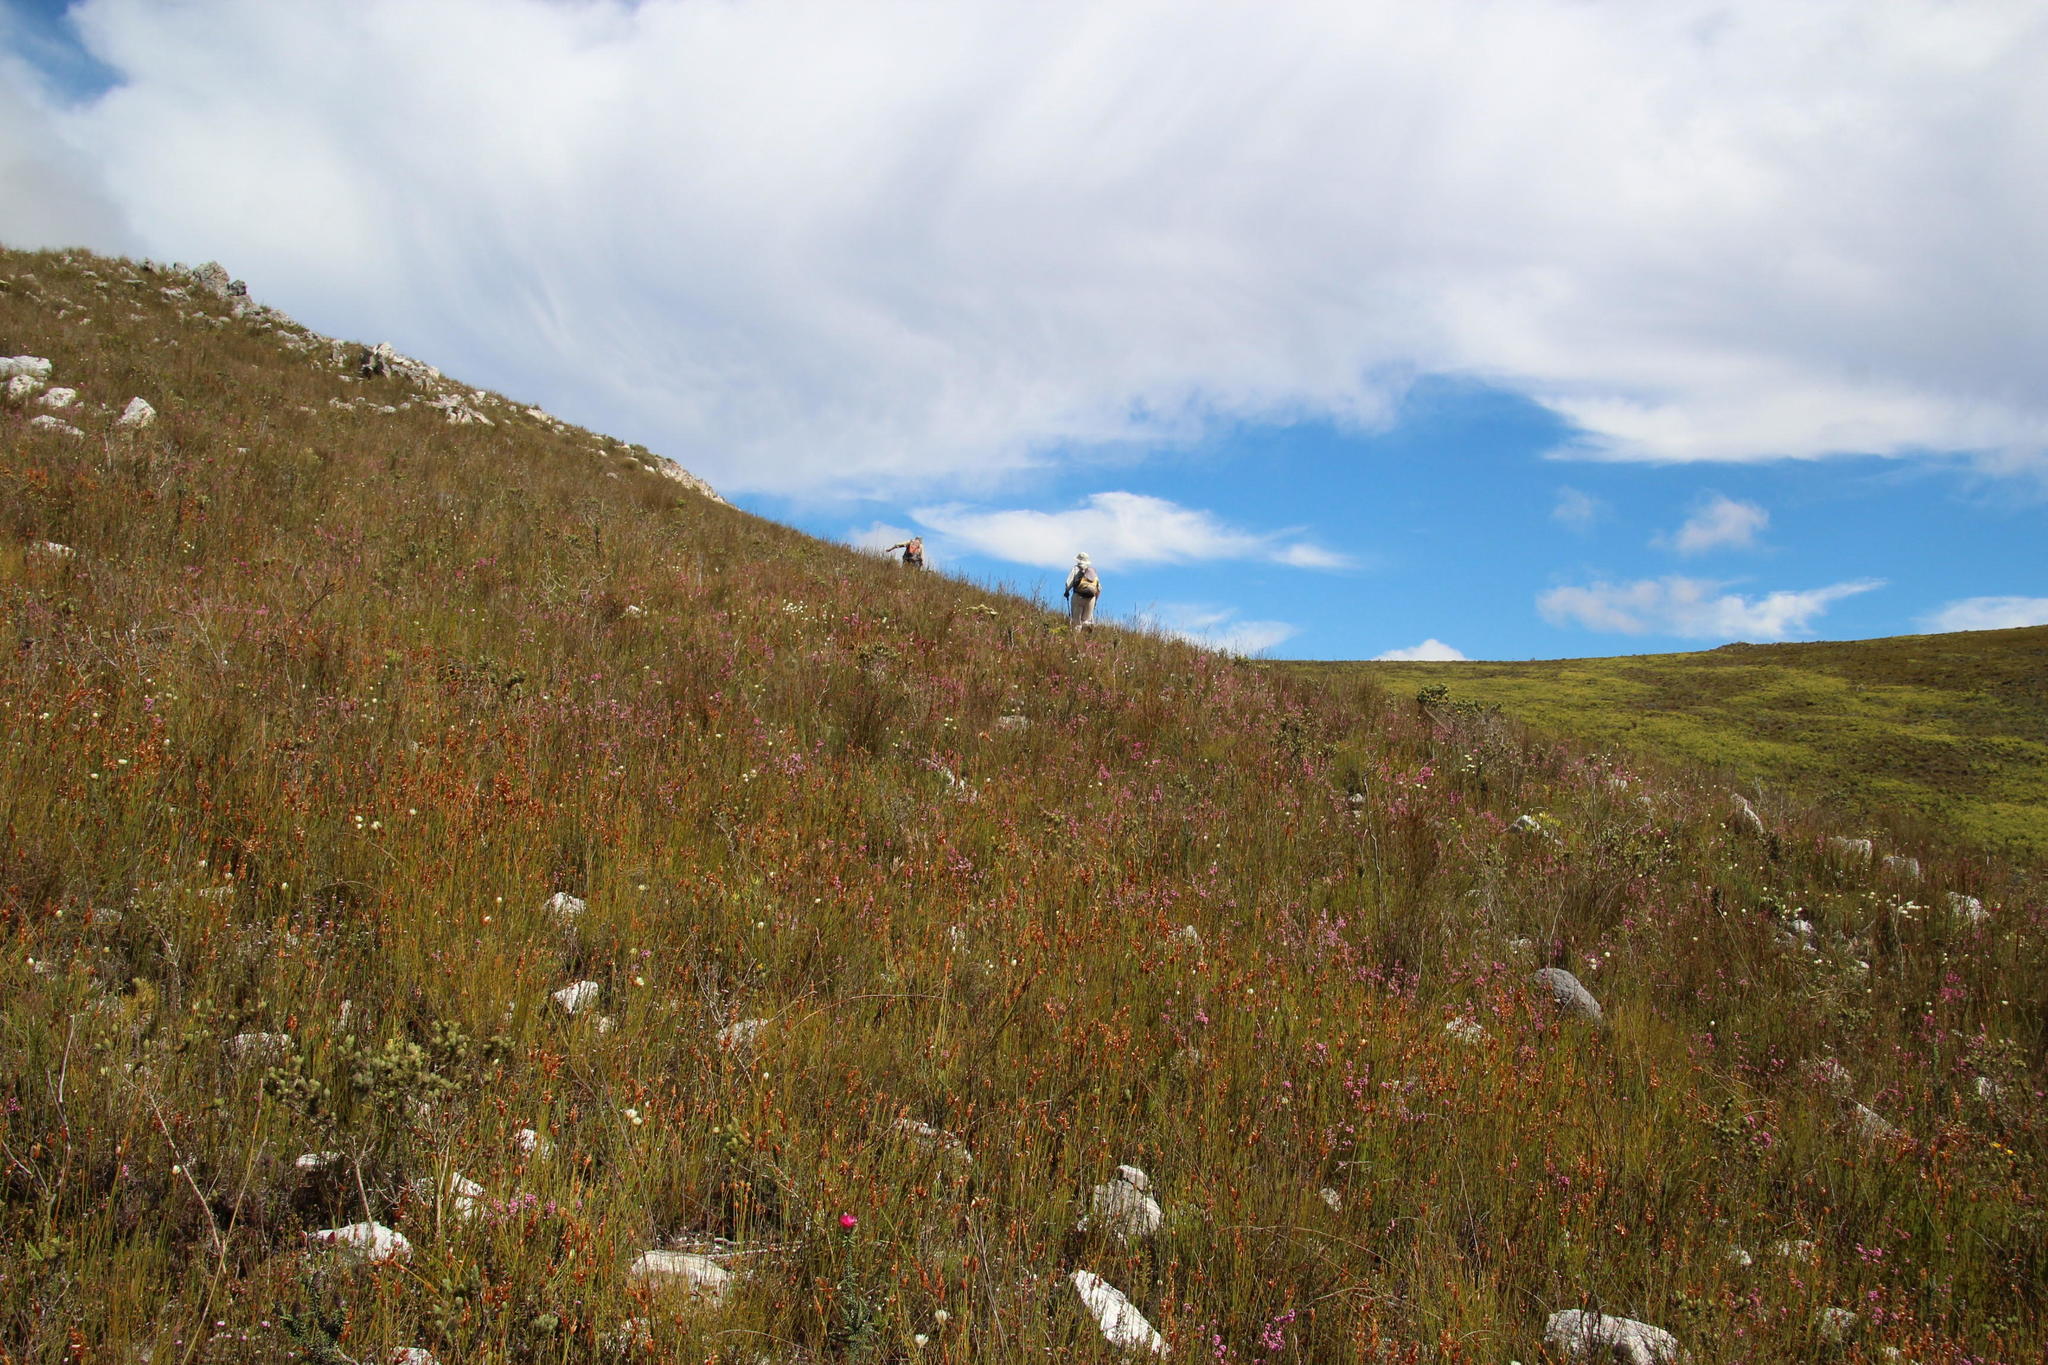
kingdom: Plantae
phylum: Tracheophyta
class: Magnoliopsida
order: Ericales
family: Ericaceae
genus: Erica
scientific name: Erica corifolia
